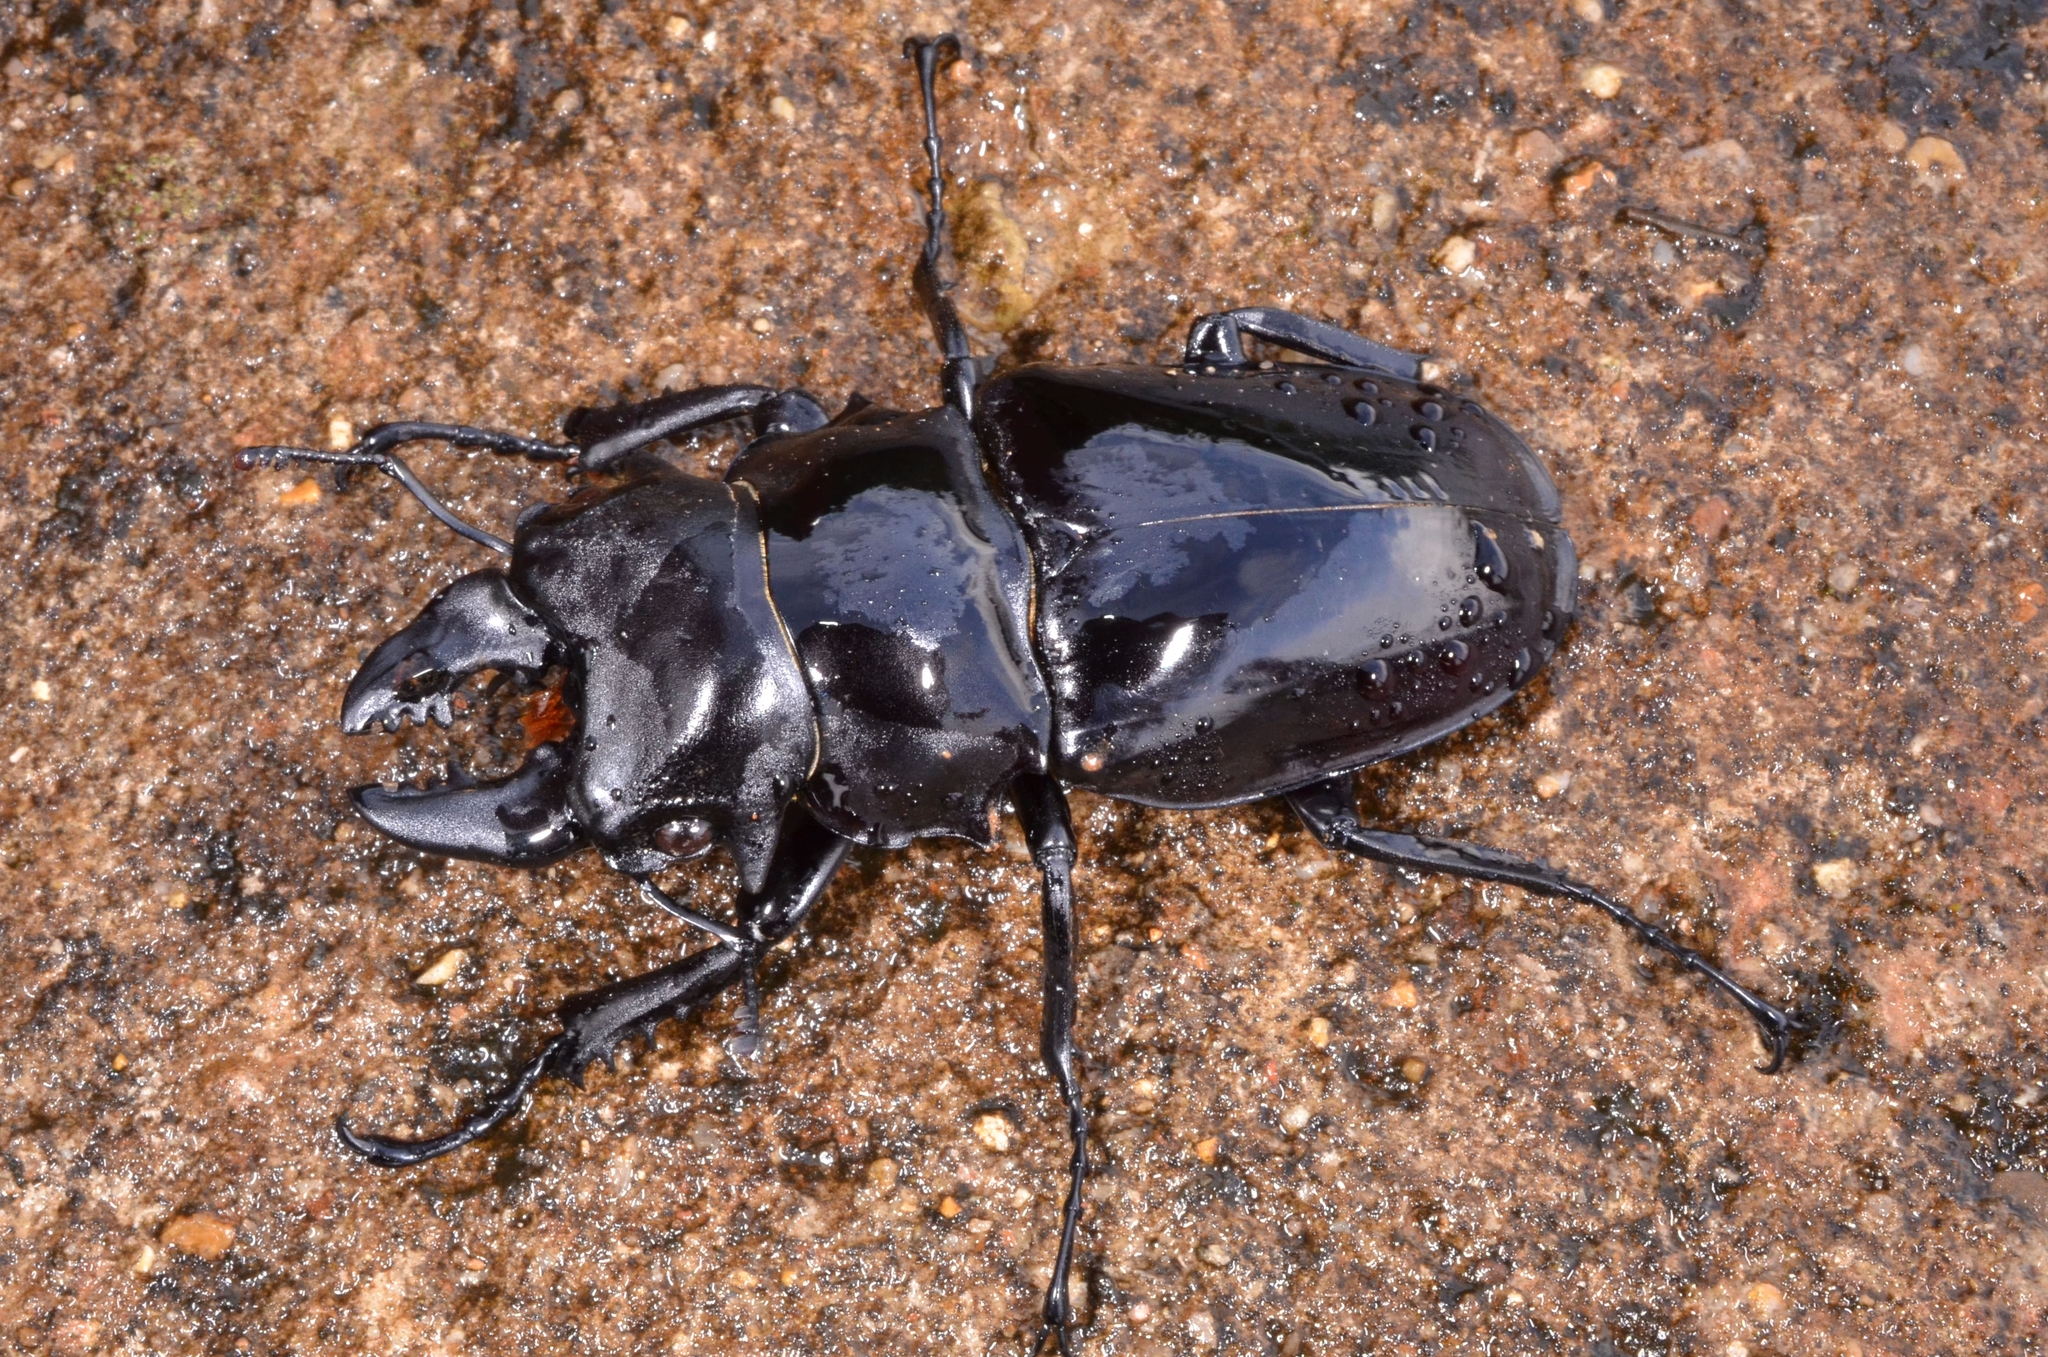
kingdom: Animalia
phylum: Arthropoda
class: Insecta
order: Coleoptera
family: Lucanidae
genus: Odontolabis
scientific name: Odontolabis siva
